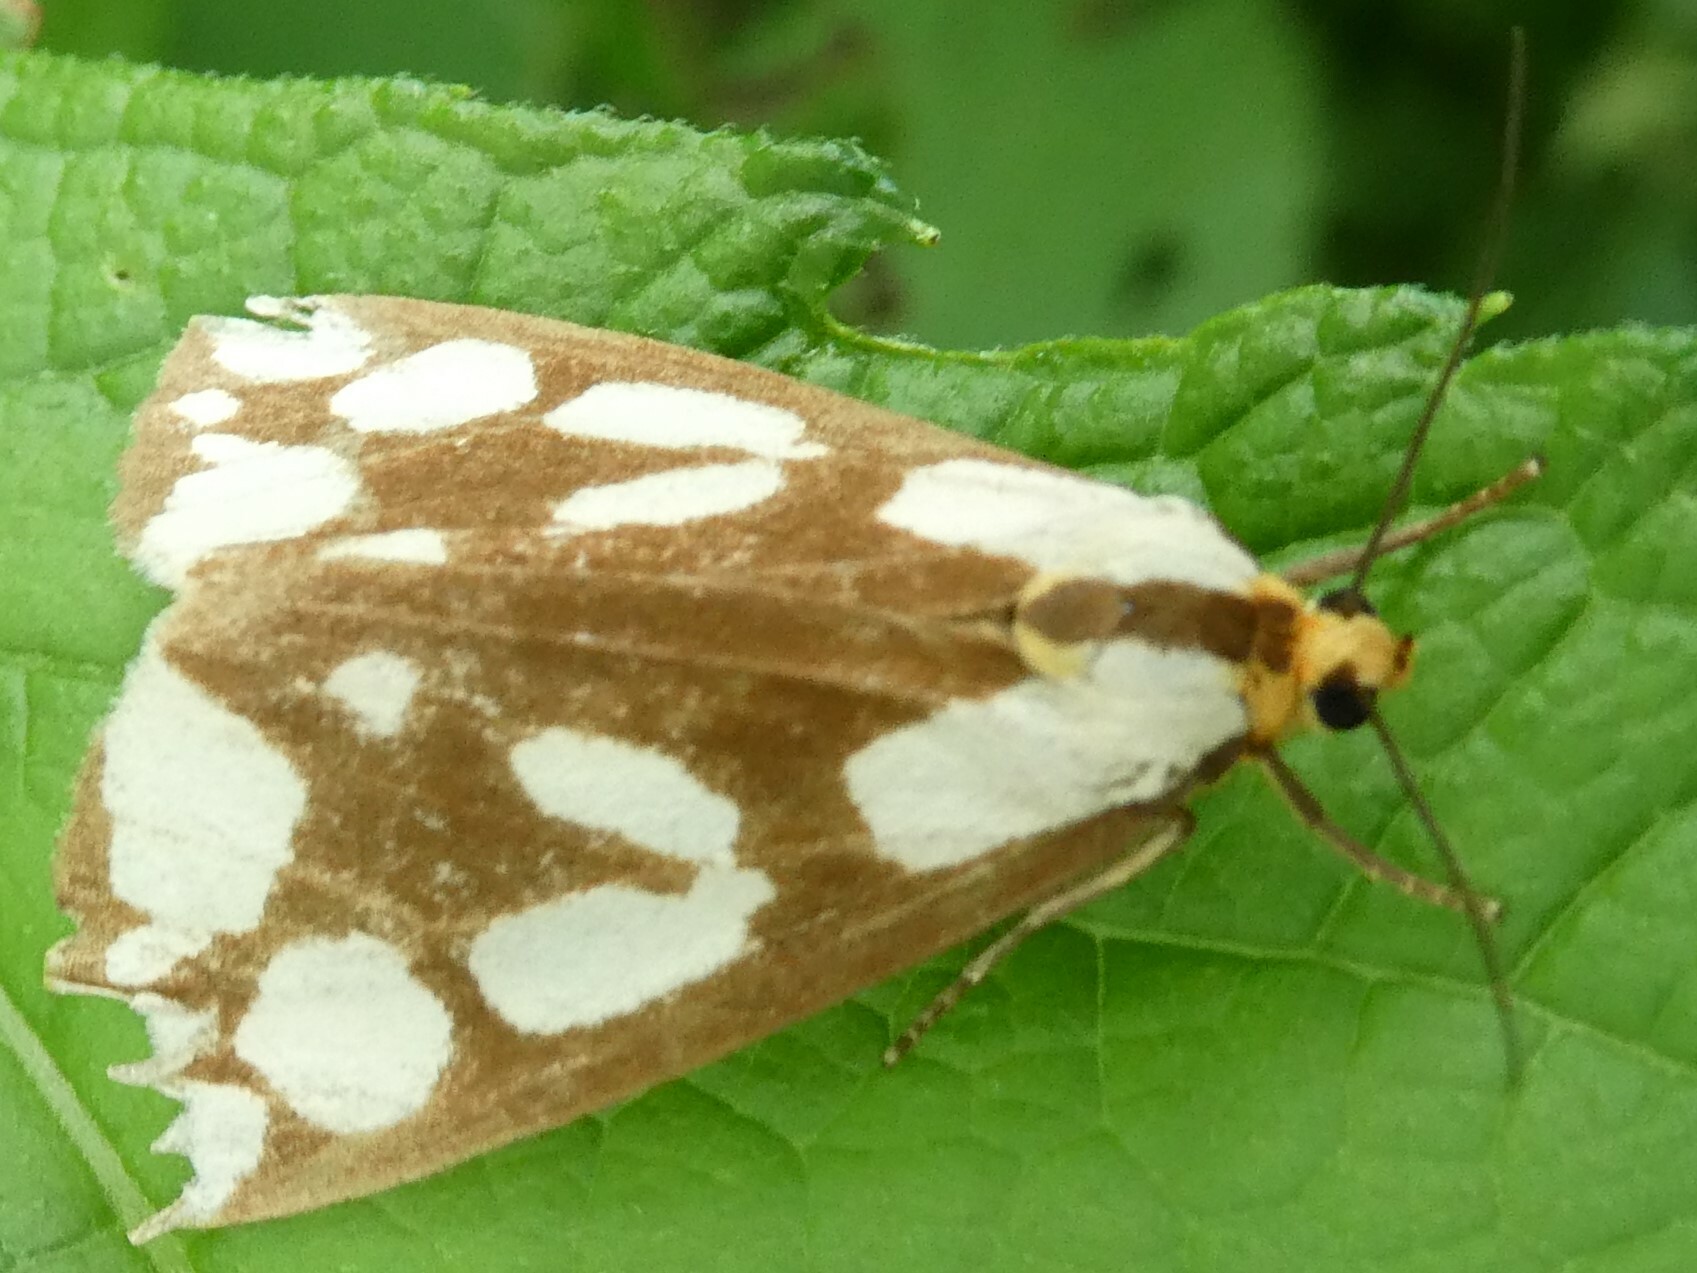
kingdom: Animalia
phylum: Arthropoda
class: Insecta
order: Lepidoptera
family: Erebidae
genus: Haploa
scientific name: Haploa confusa
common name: Confused haploa moth
